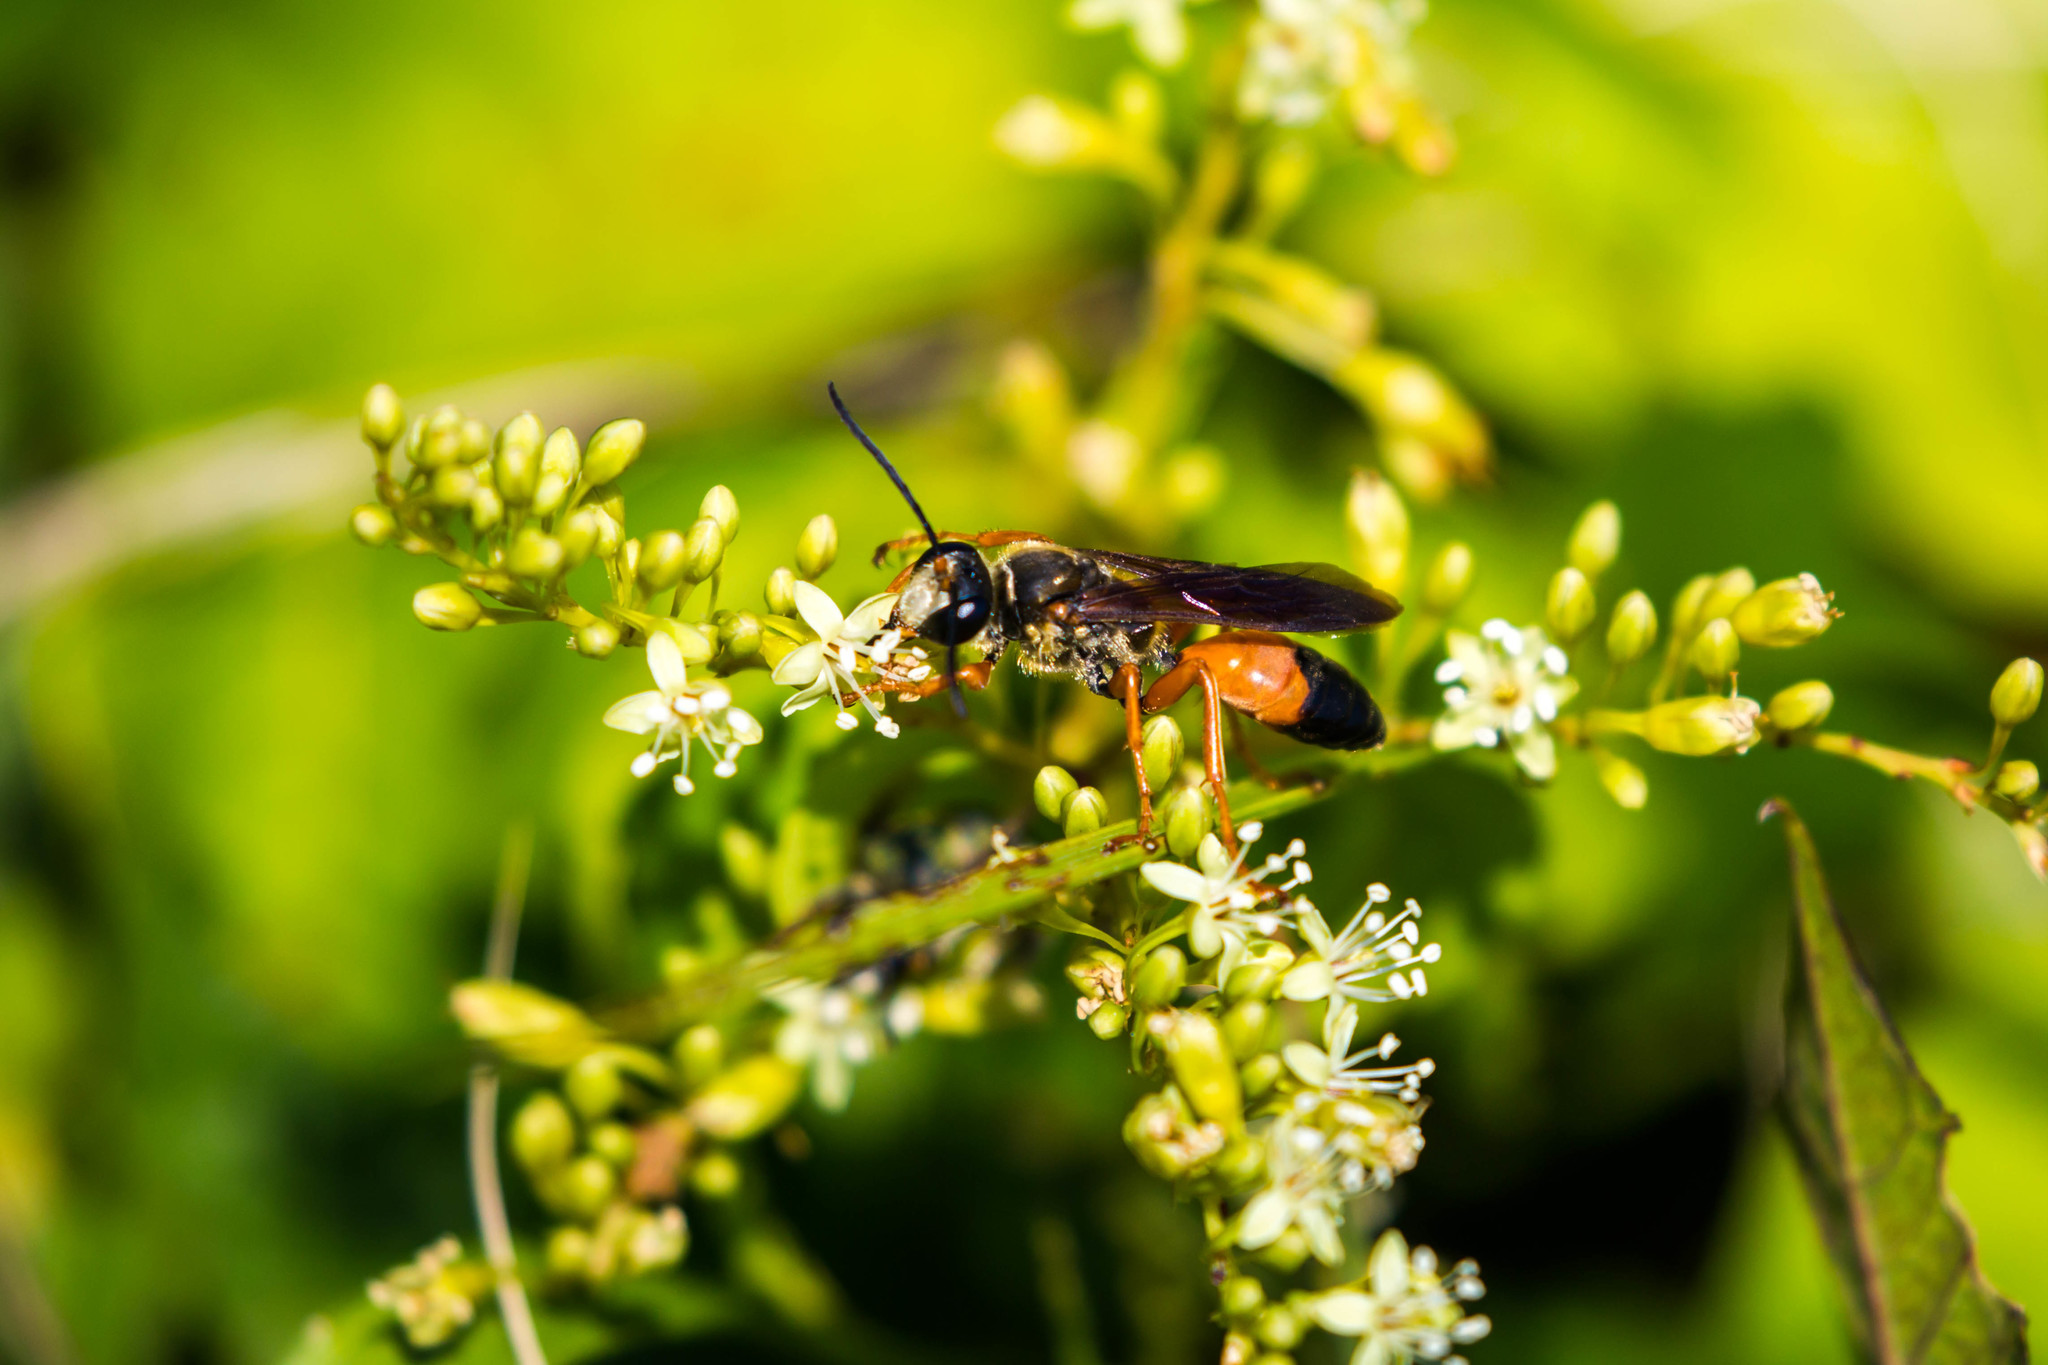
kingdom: Animalia
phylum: Arthropoda
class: Insecta
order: Hymenoptera
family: Sphecidae
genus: Sphex
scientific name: Sphex ichneumoneus
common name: Great golden digger wasp
